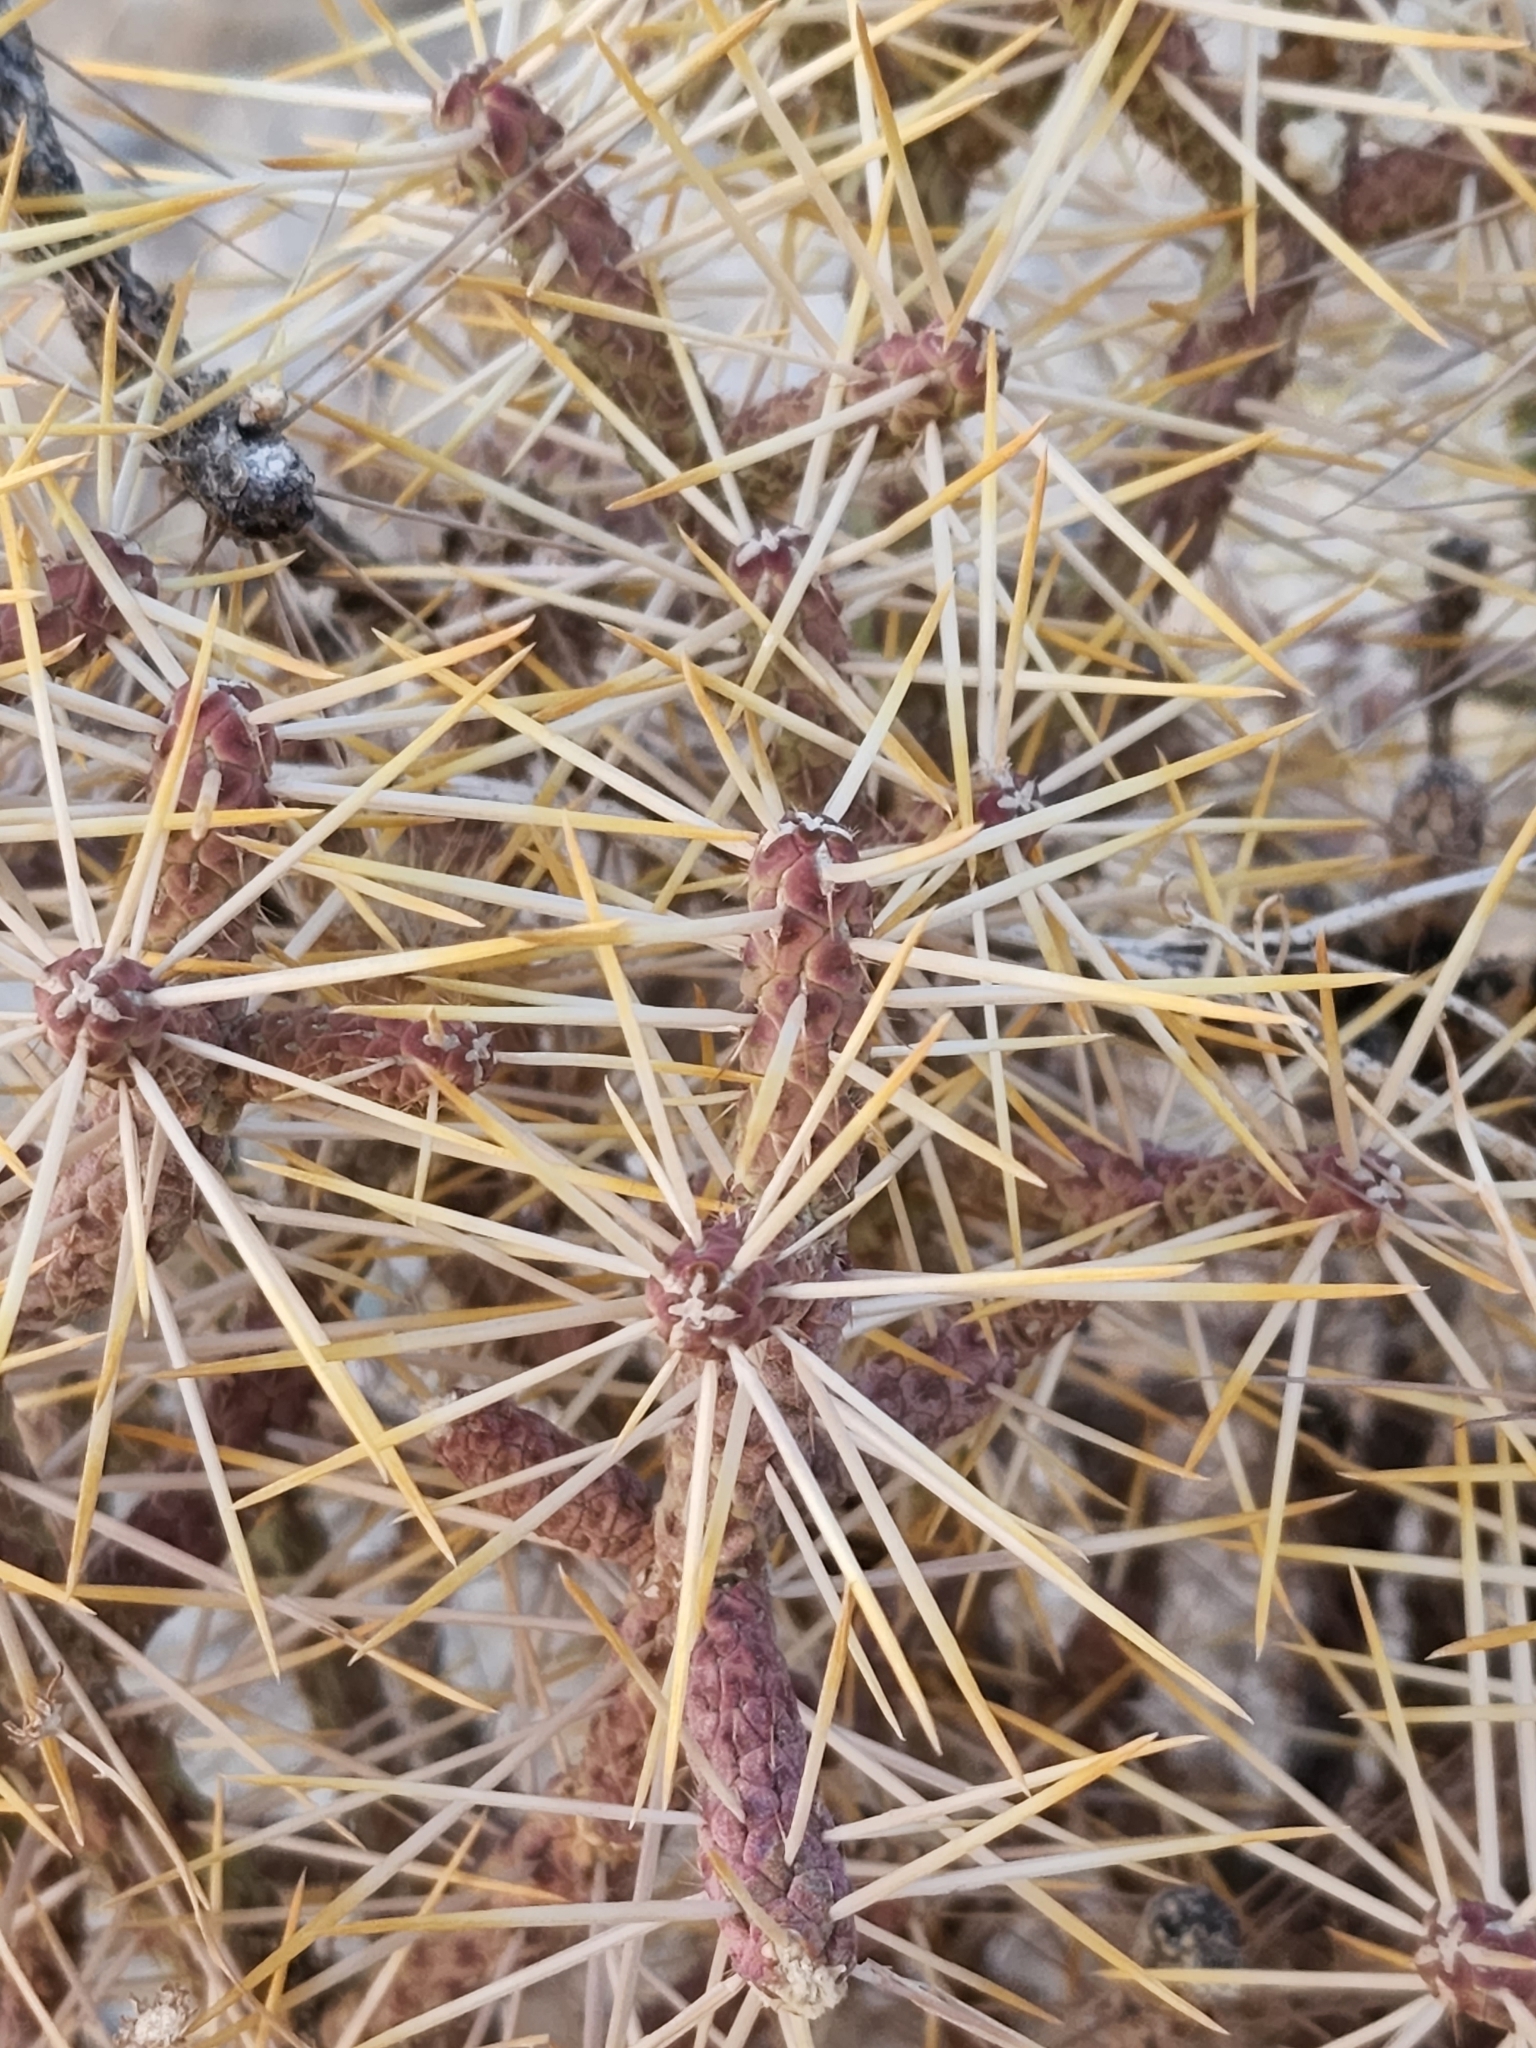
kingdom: Plantae
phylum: Tracheophyta
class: Magnoliopsida
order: Caryophyllales
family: Cactaceae
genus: Cylindropuntia
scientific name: Cylindropuntia ramosissima
